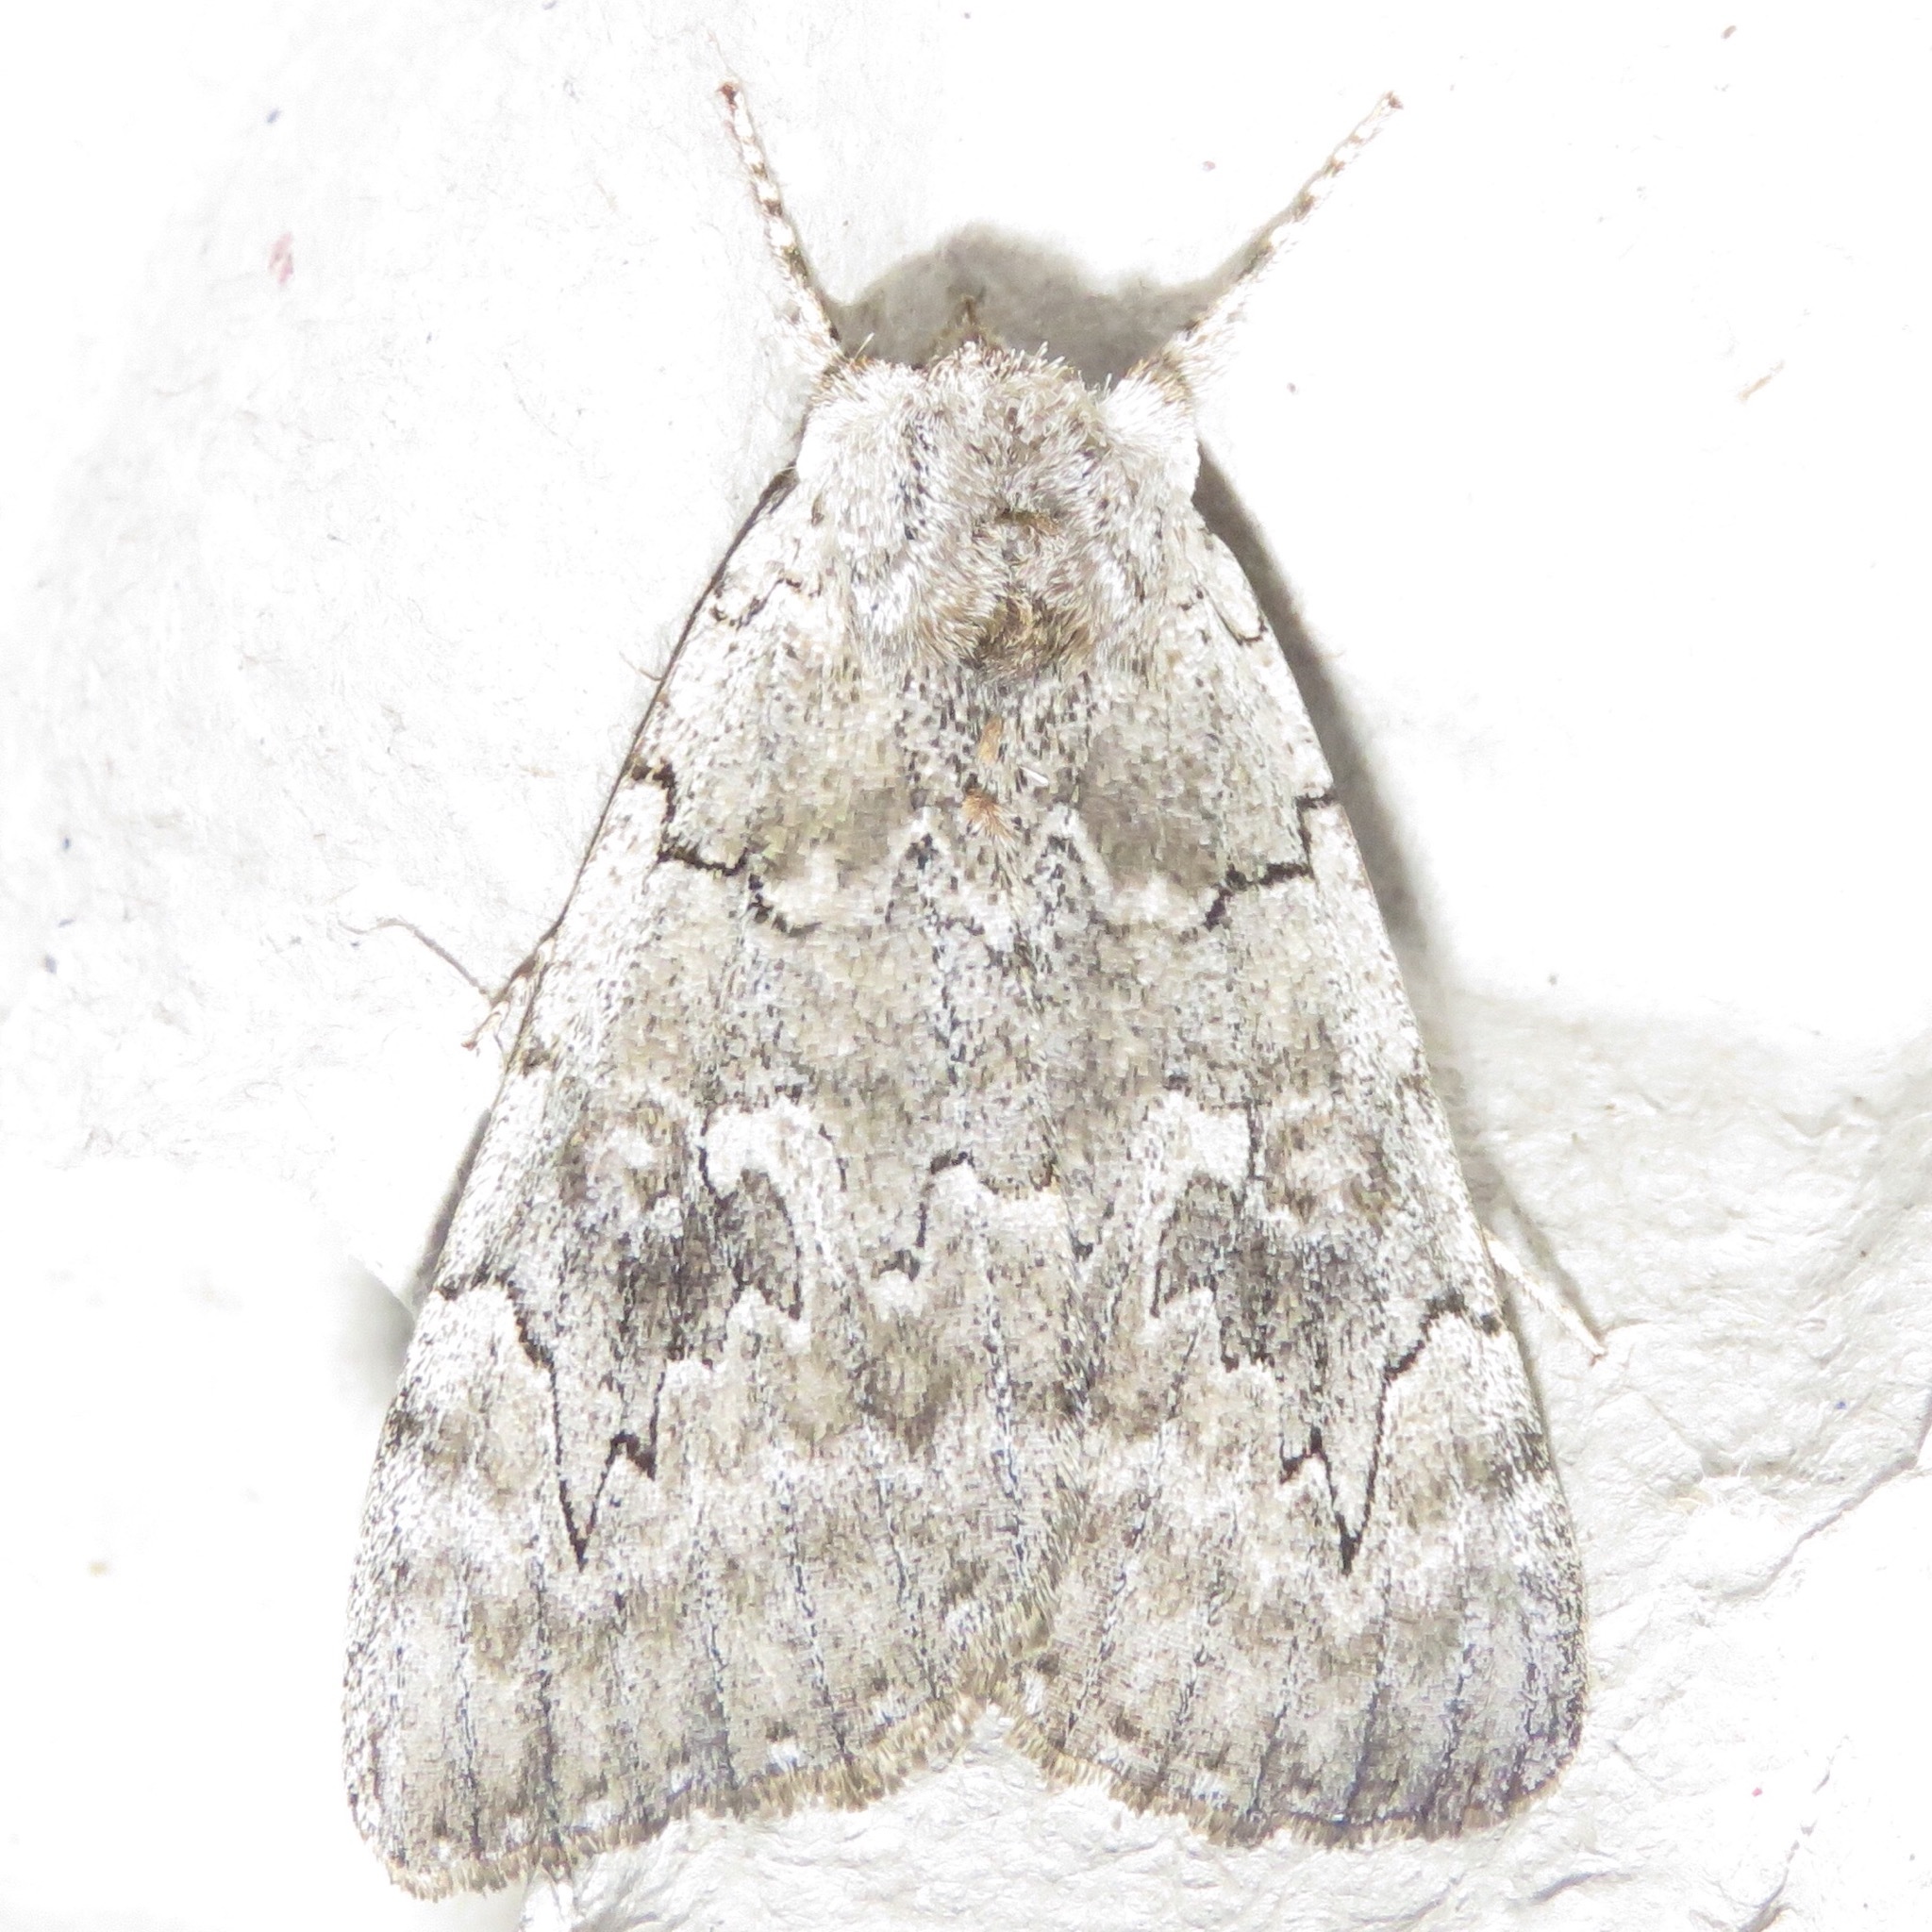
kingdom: Animalia
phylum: Arthropoda
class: Insecta
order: Lepidoptera
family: Erebidae
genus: Catocala
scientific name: Catocala concumbens
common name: Pink underwing
